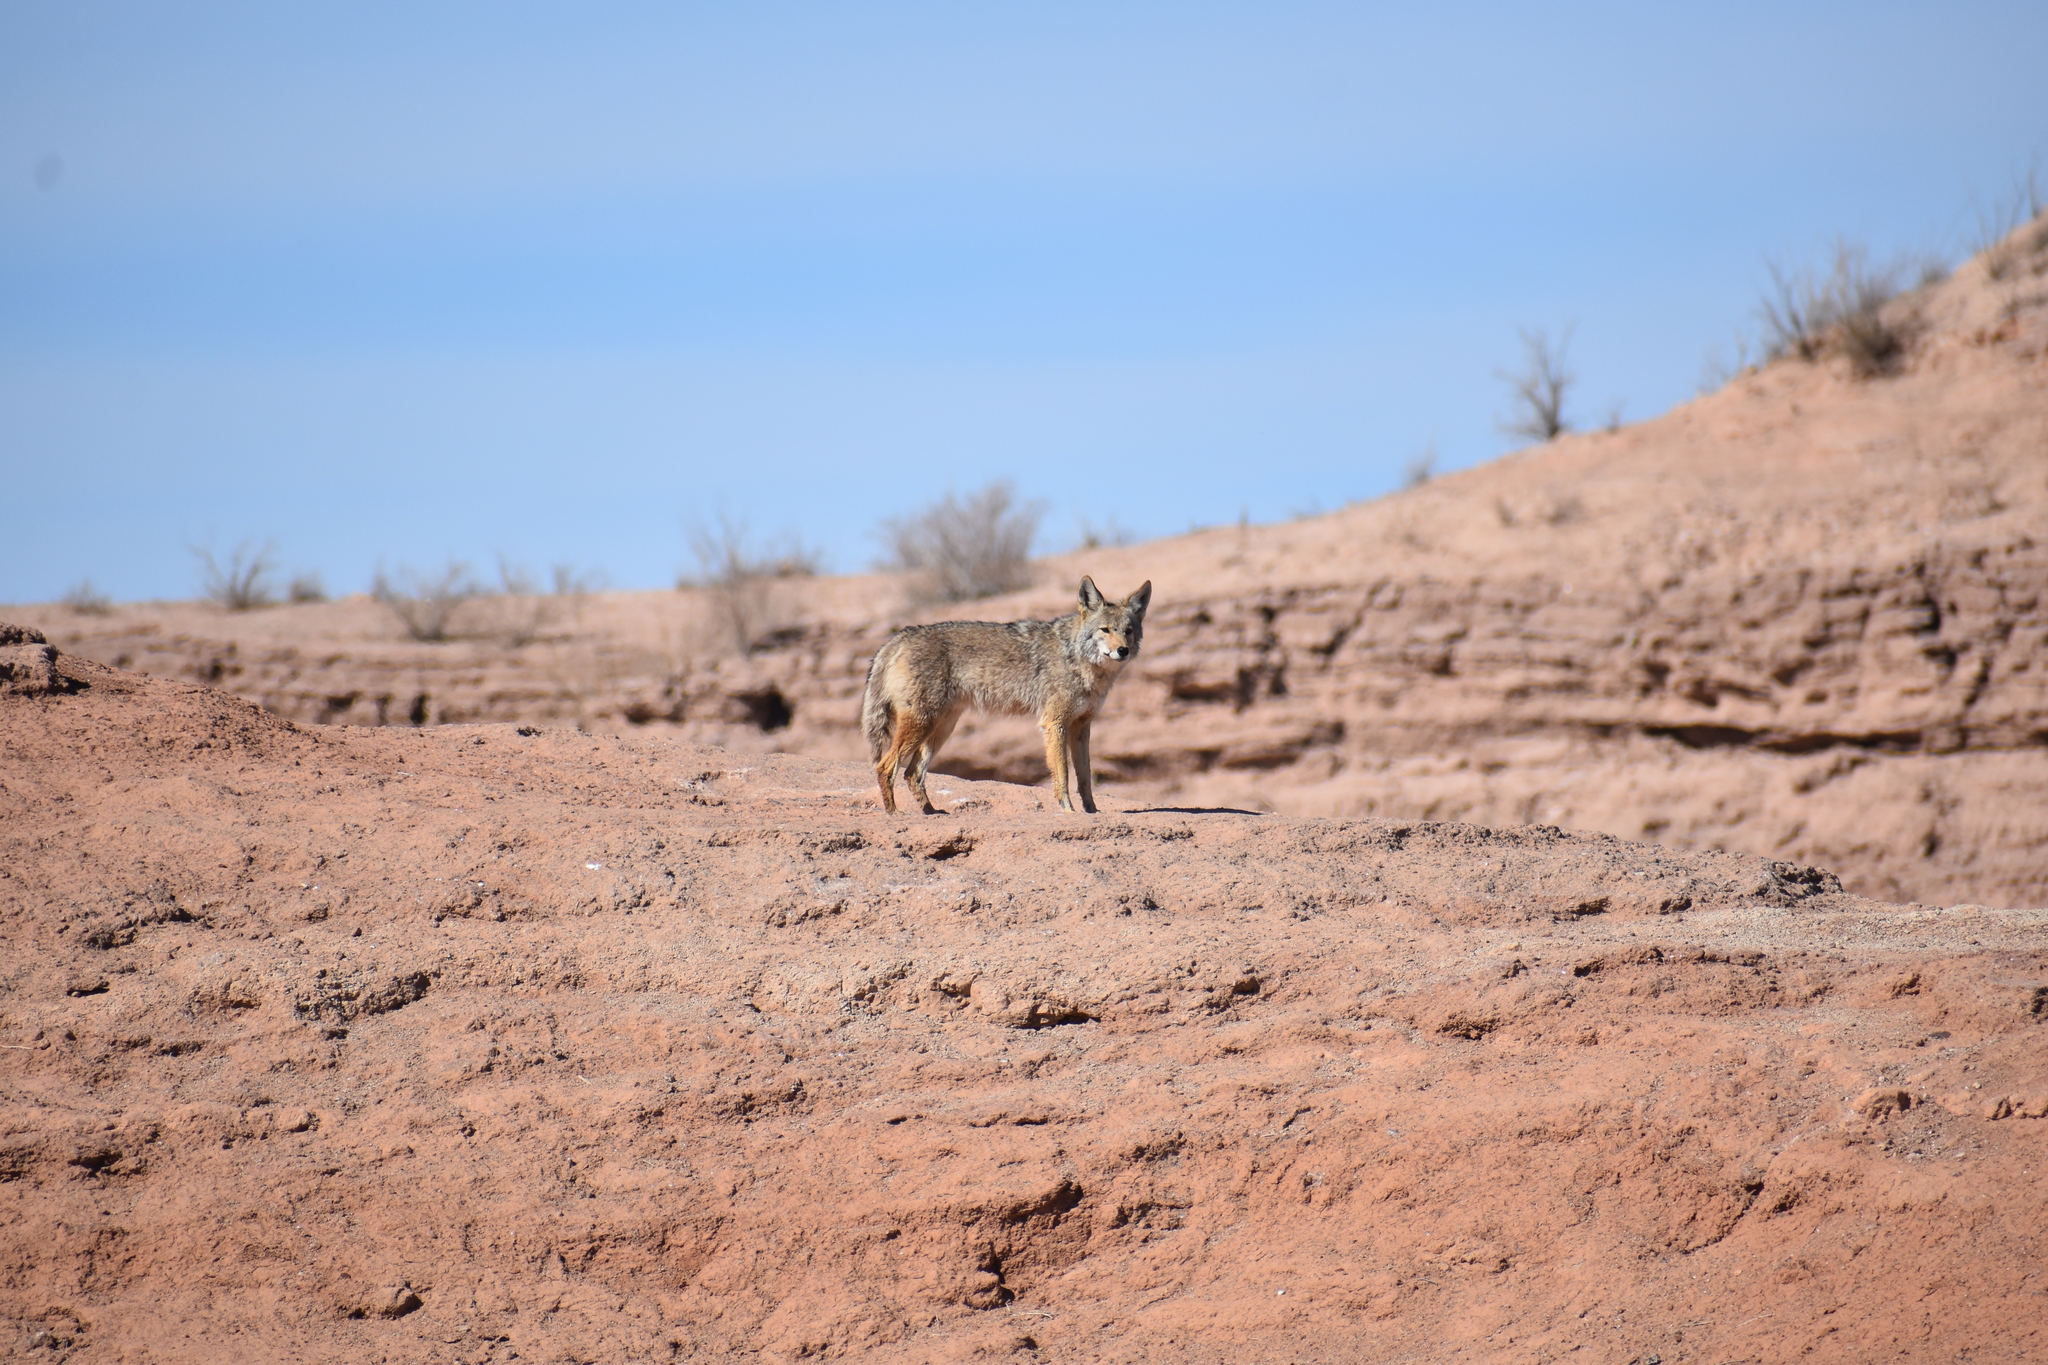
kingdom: Animalia
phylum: Chordata
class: Mammalia
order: Carnivora
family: Canidae
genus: Canis
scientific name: Canis latrans
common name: Coyote
